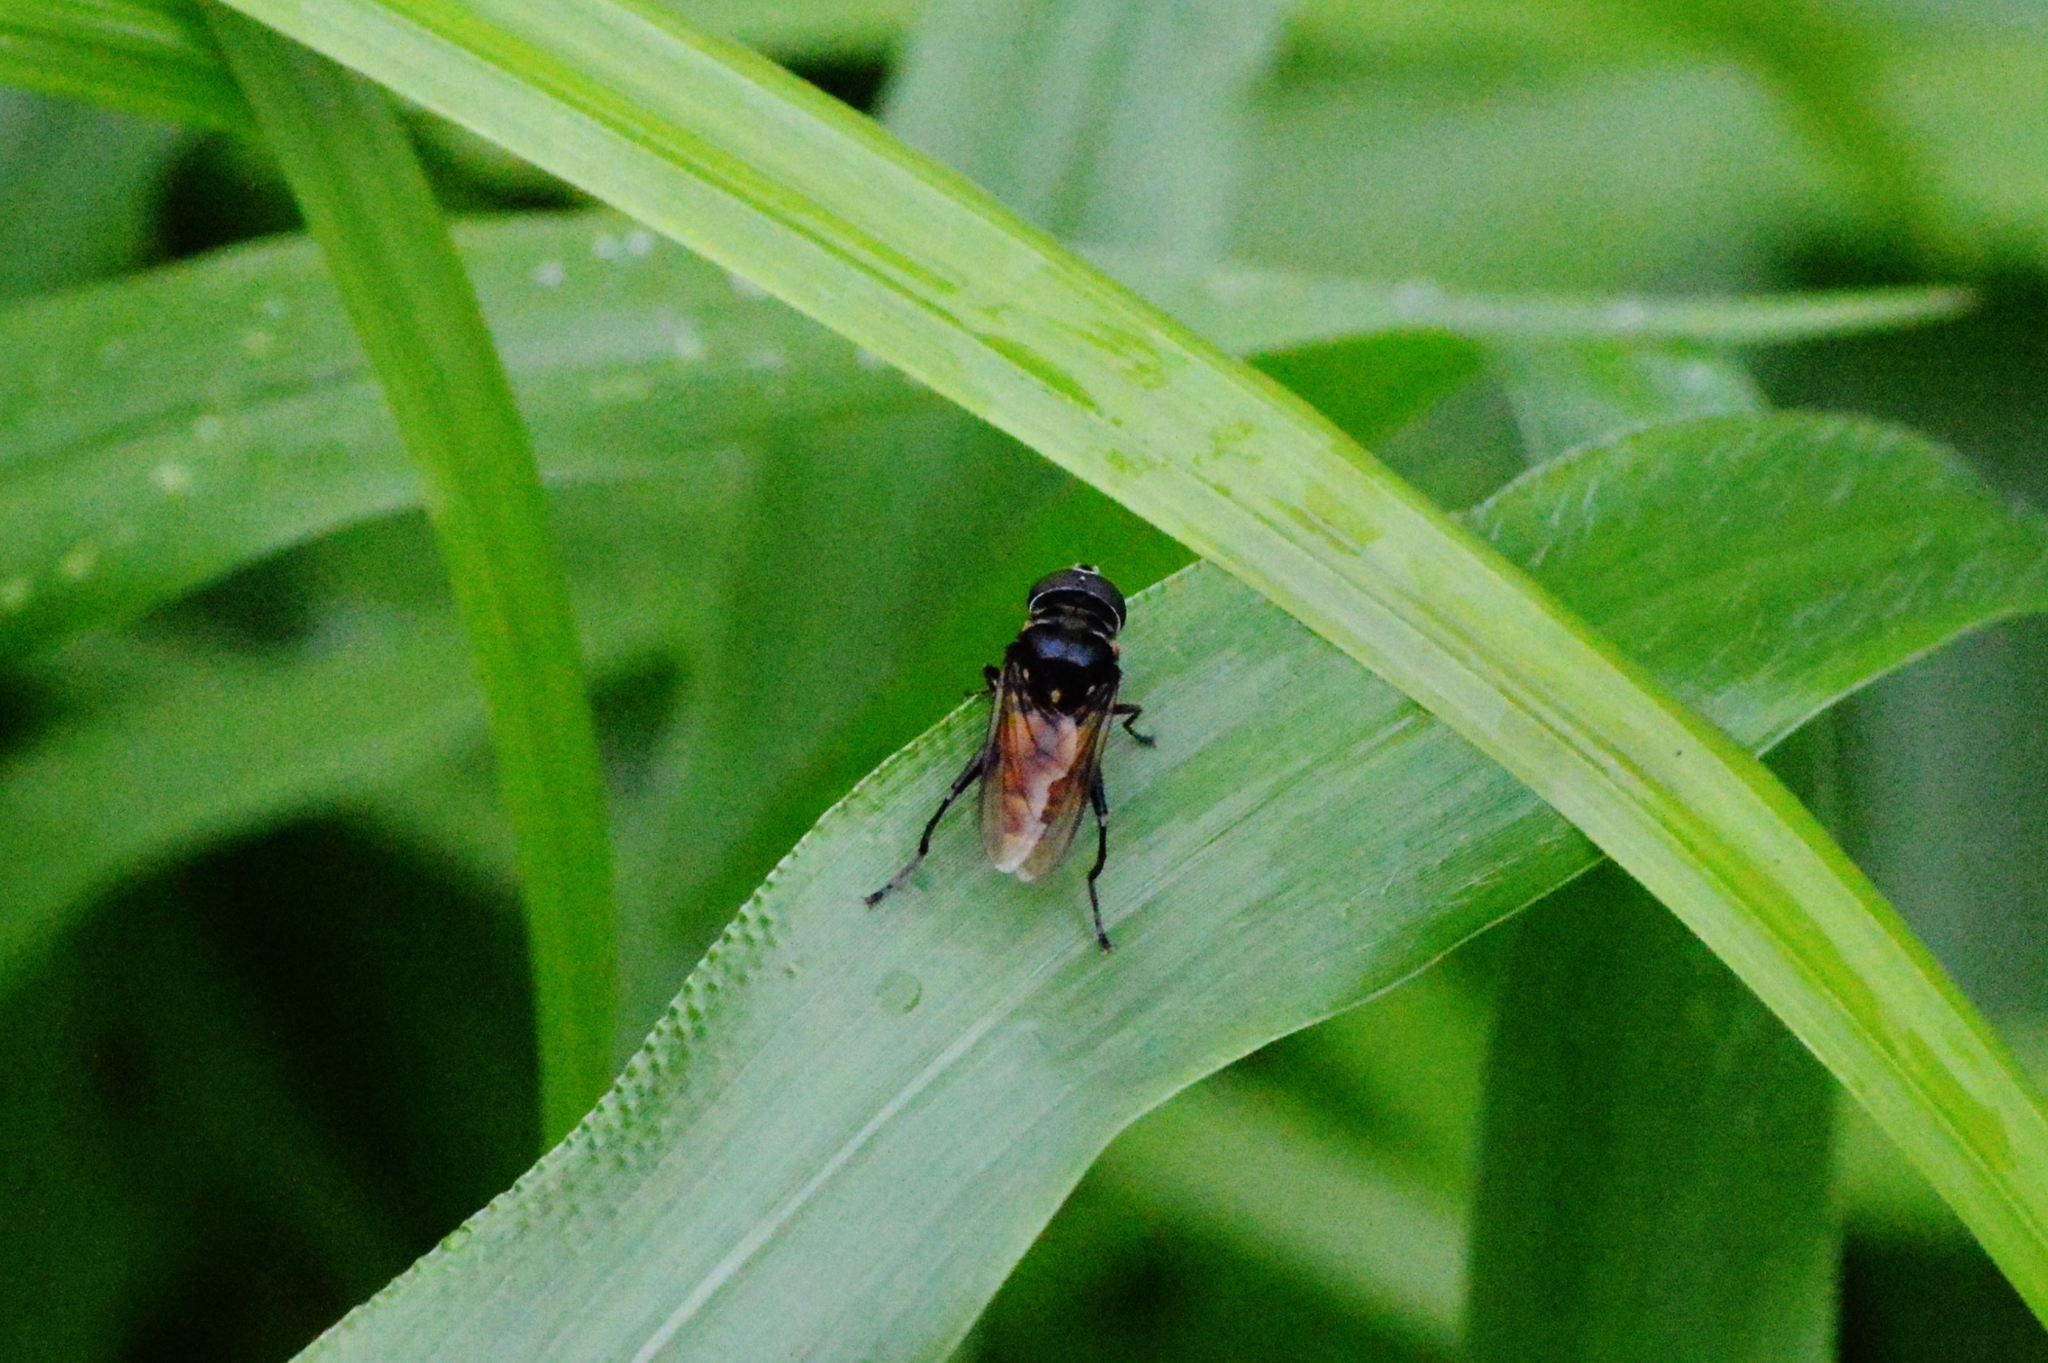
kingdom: Animalia
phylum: Arthropoda
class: Insecta
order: Diptera
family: Syrphidae
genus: Palpada
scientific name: Palpada melanaspis
